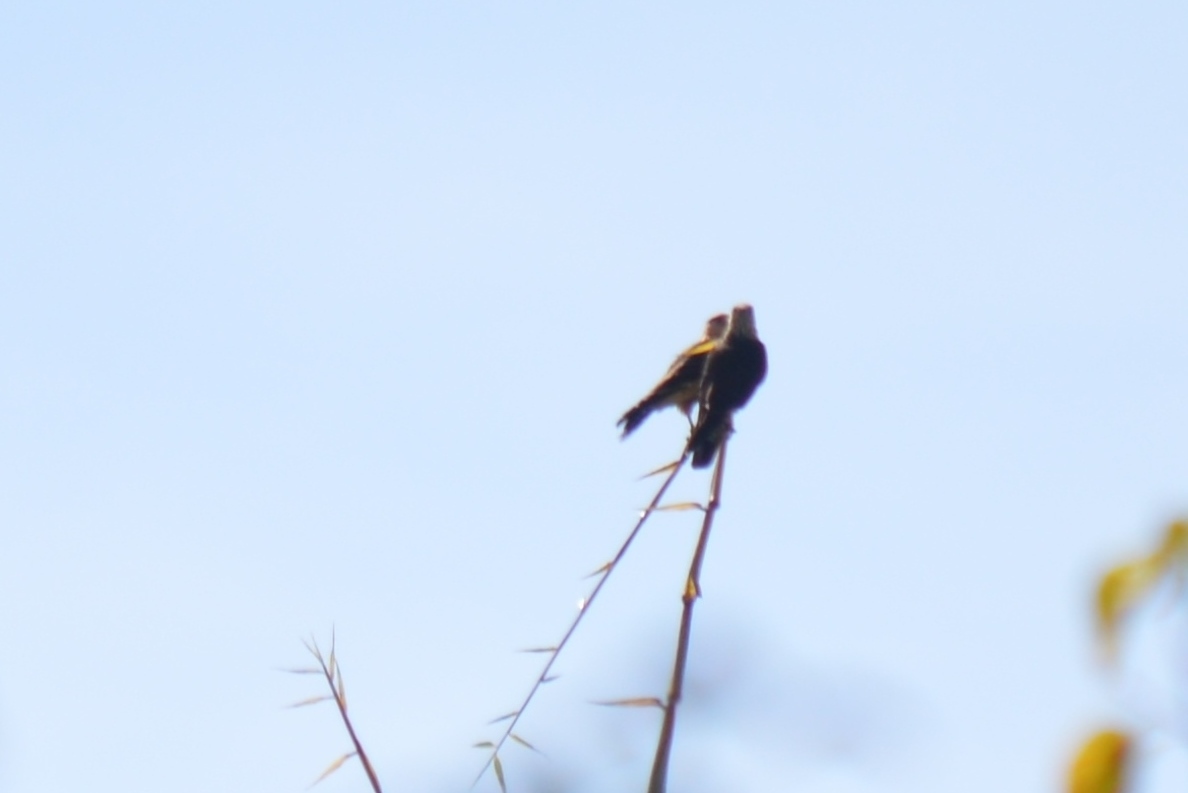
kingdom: Animalia
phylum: Chordata
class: Aves
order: Falconiformes
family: Falconidae
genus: Daptrius
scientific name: Daptrius
